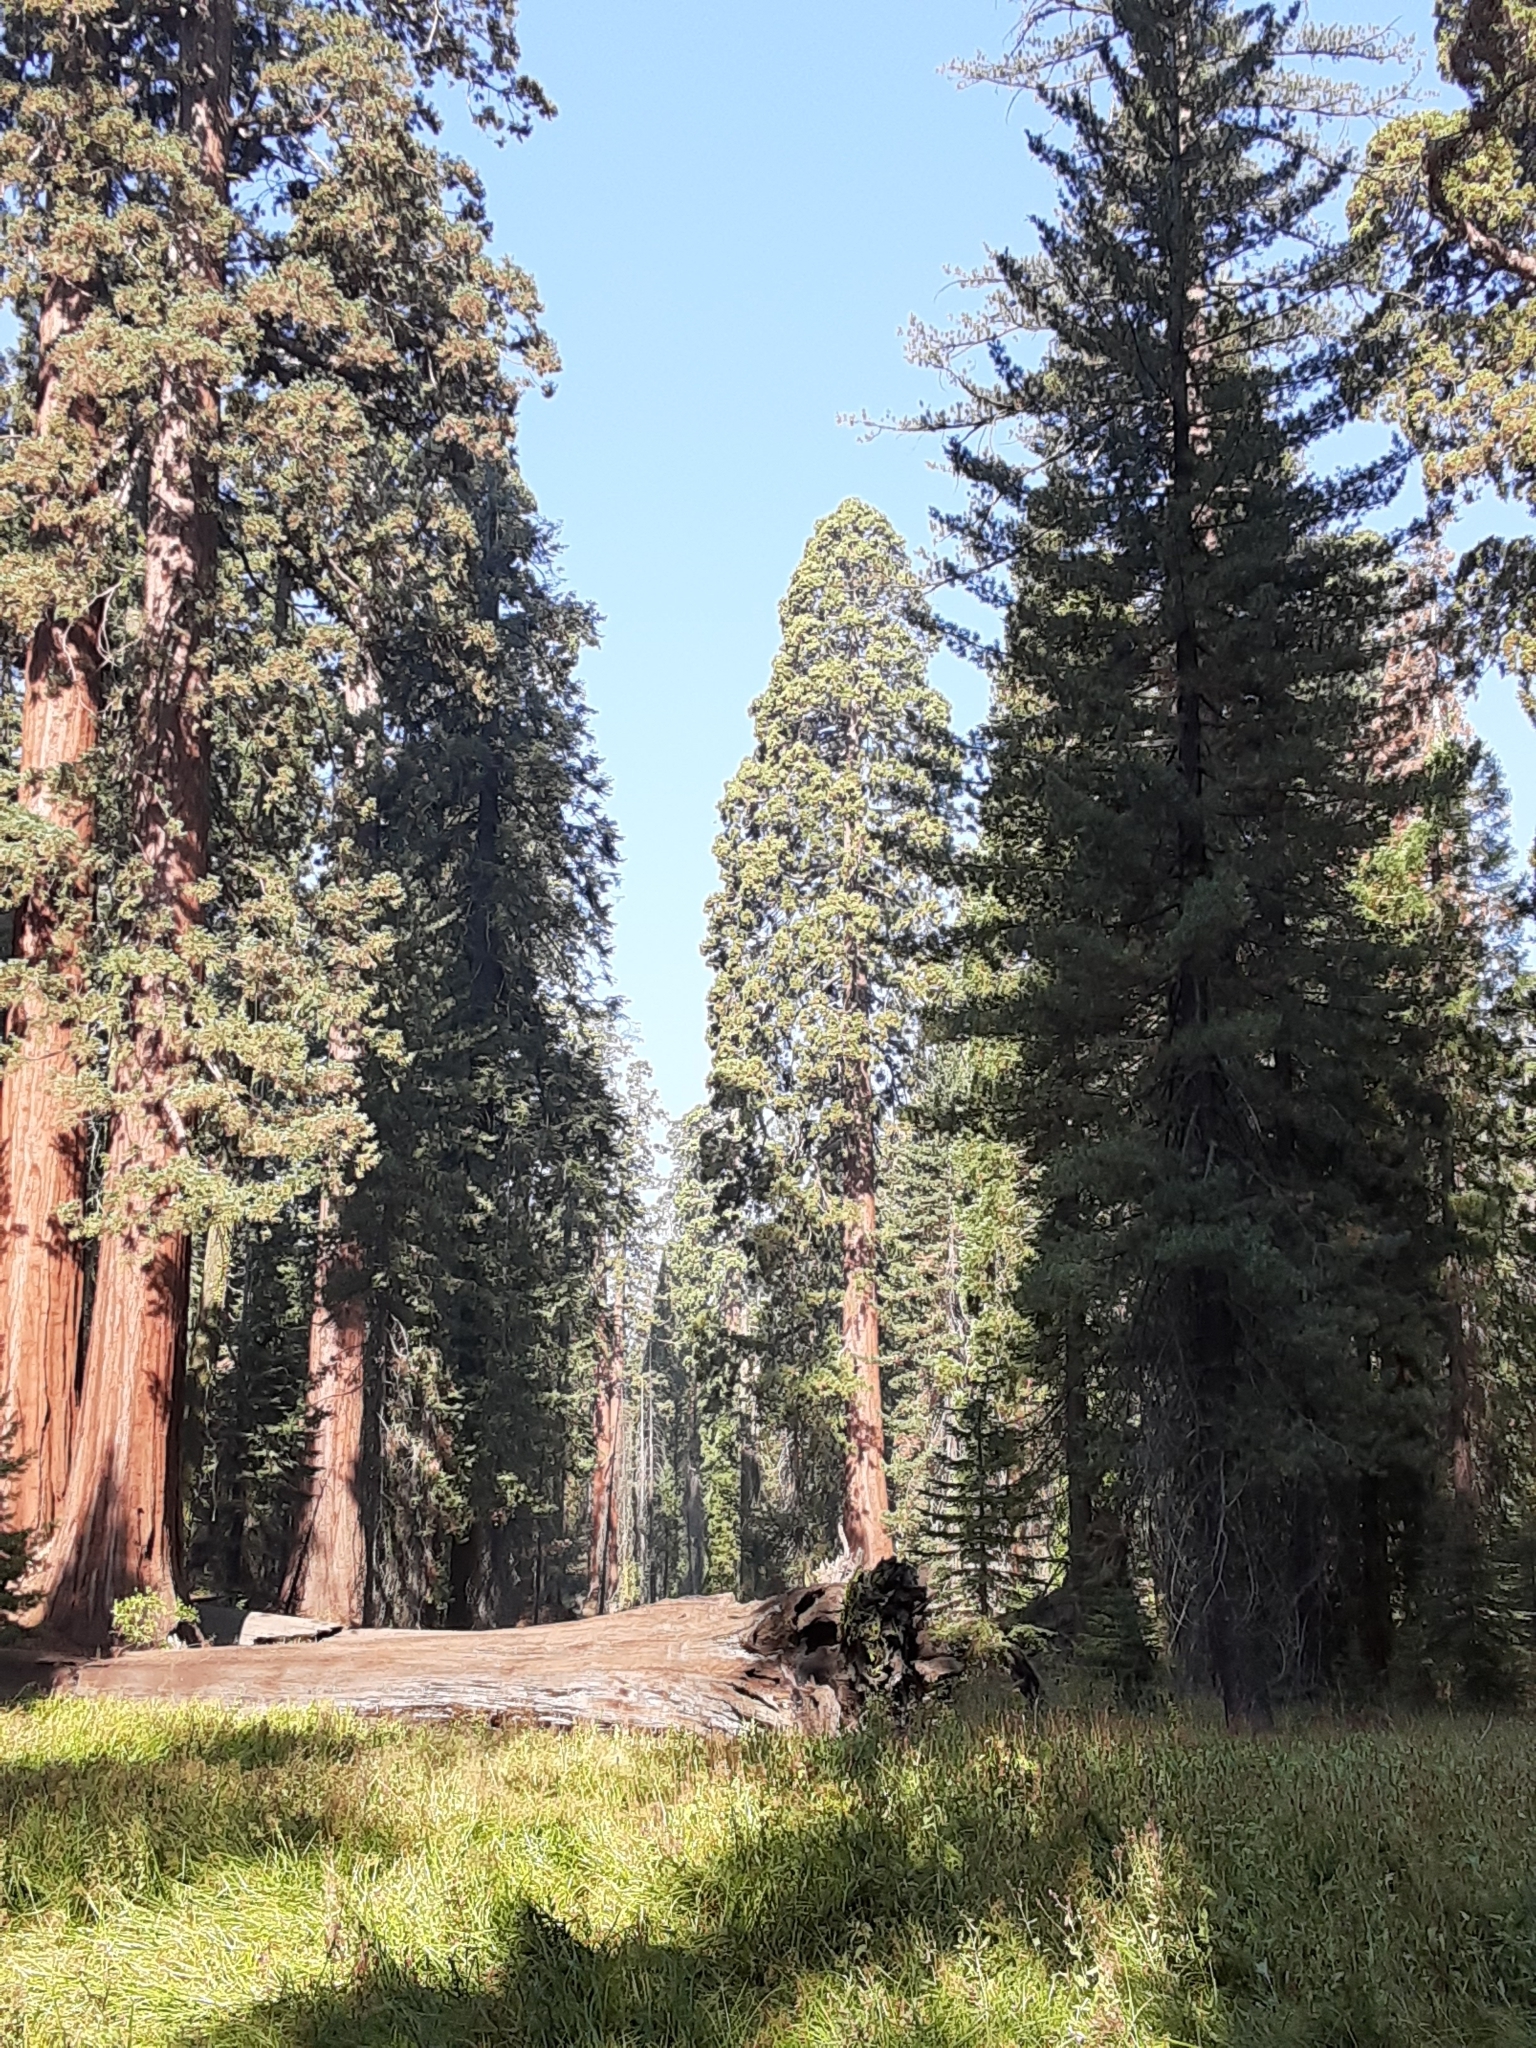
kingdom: Plantae
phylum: Tracheophyta
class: Pinopsida
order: Pinales
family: Cupressaceae
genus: Sequoiadendron
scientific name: Sequoiadendron giganteum
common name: Wellingtonia
